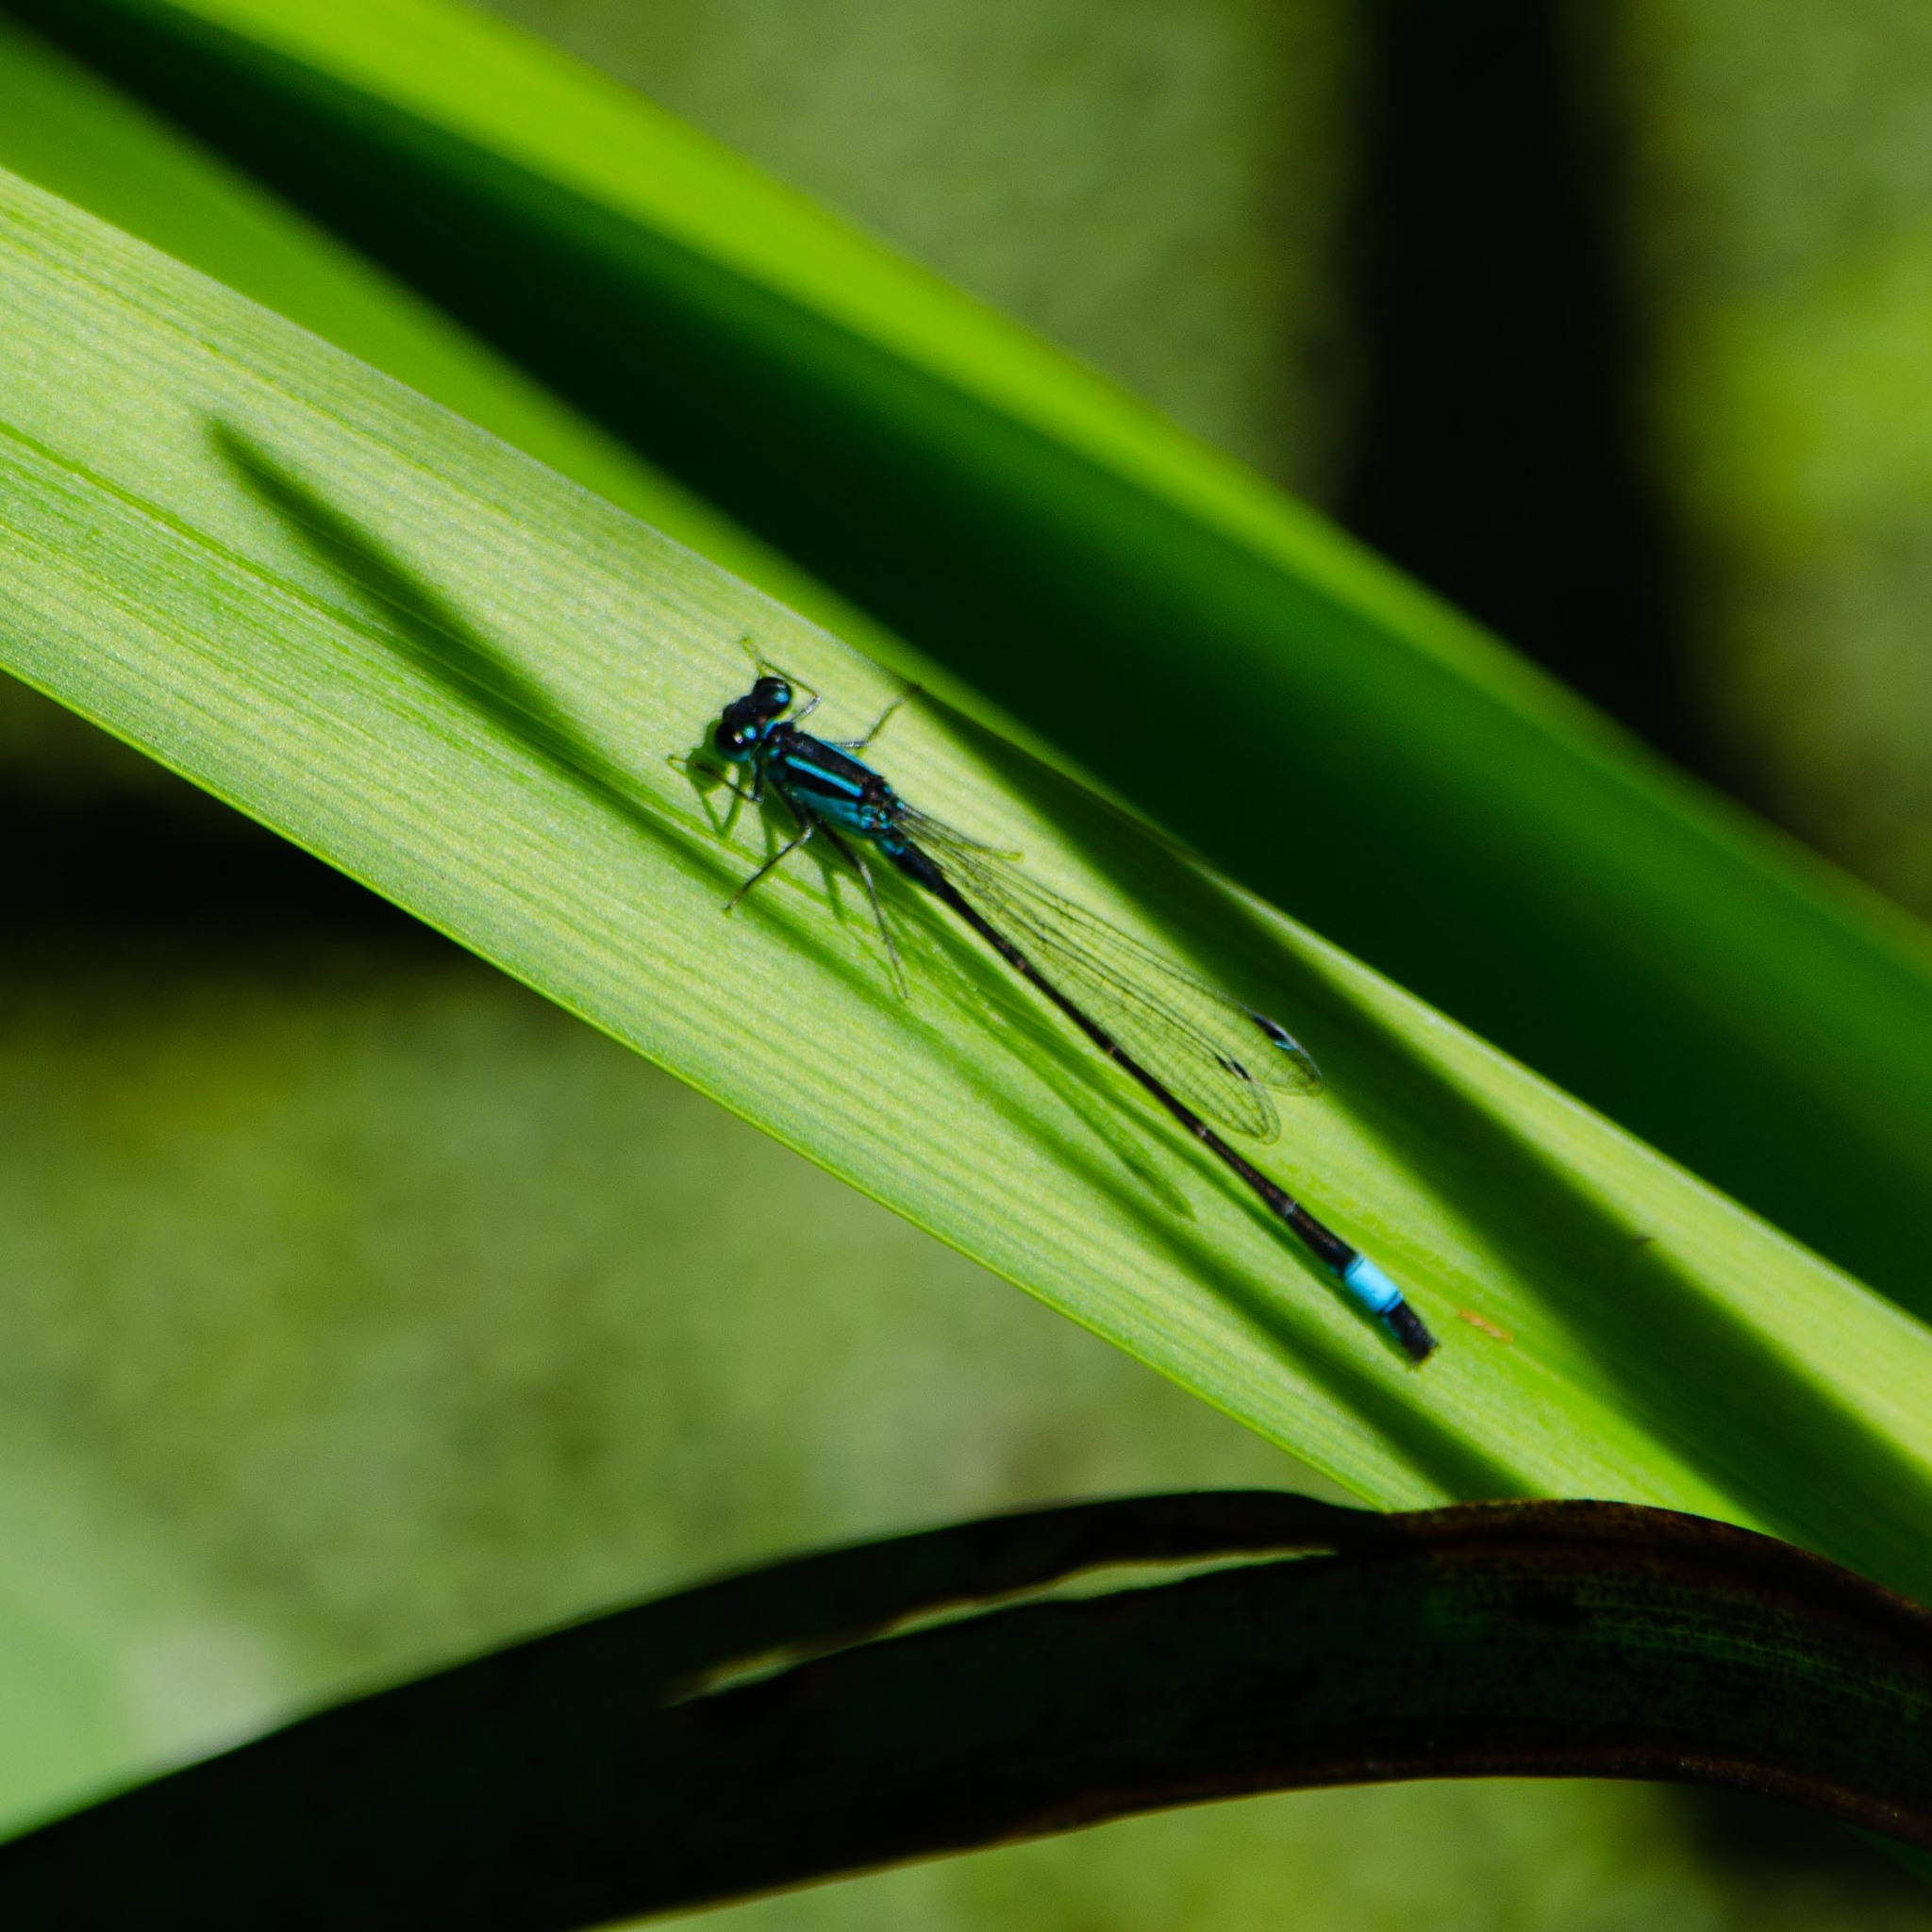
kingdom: Animalia
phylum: Arthropoda
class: Insecta
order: Odonata
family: Coenagrionidae
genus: Ischnura
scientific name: Ischnura elegans
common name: Blue-tailed damselfly
